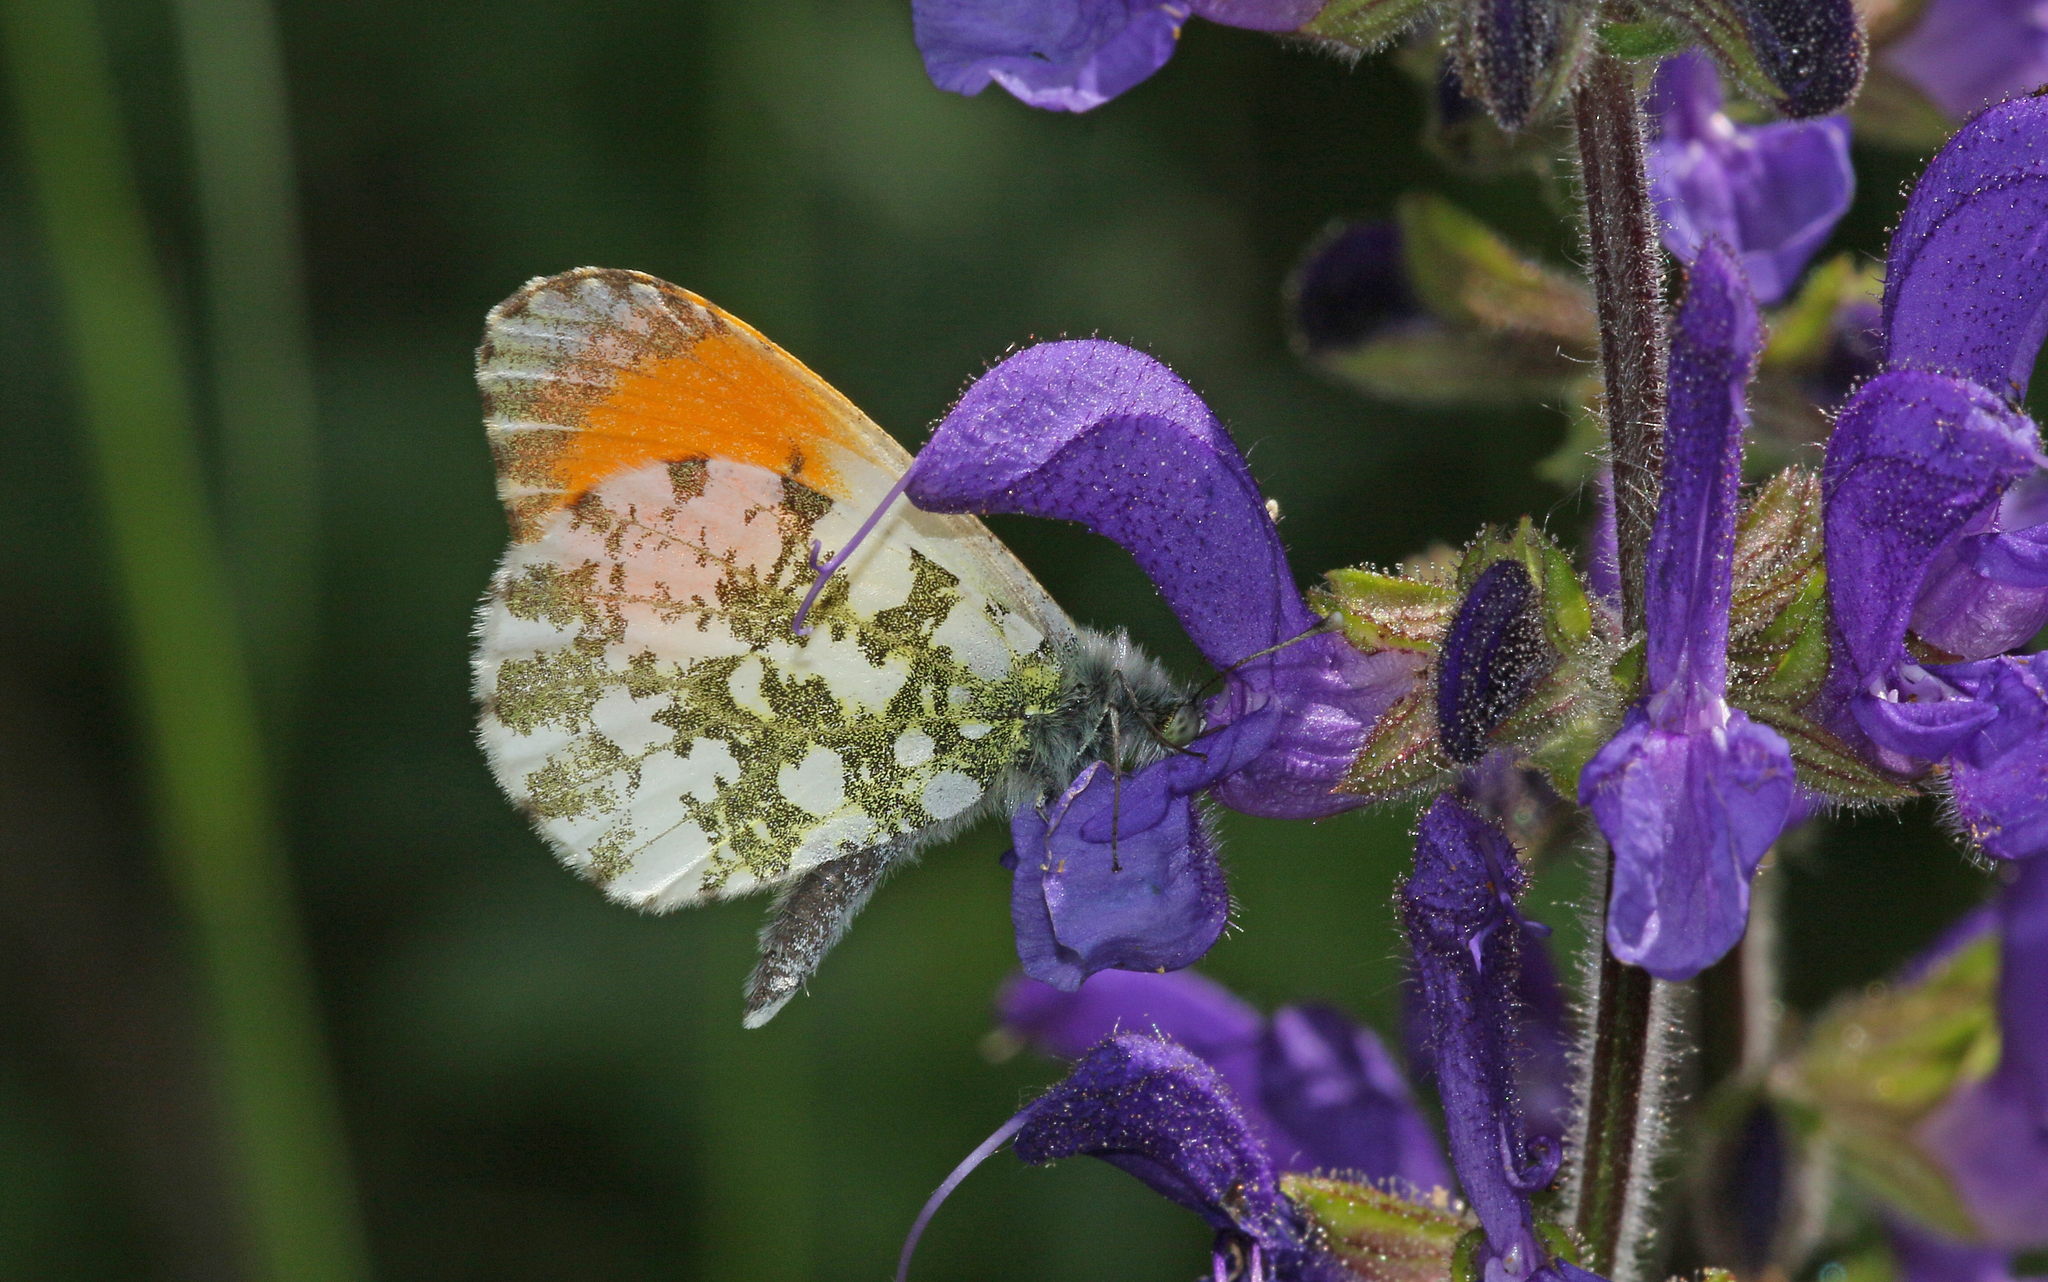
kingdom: Animalia
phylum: Arthropoda
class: Insecta
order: Lepidoptera
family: Pieridae
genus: Anthocharis
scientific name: Anthocharis cardamines
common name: Orange-tip
